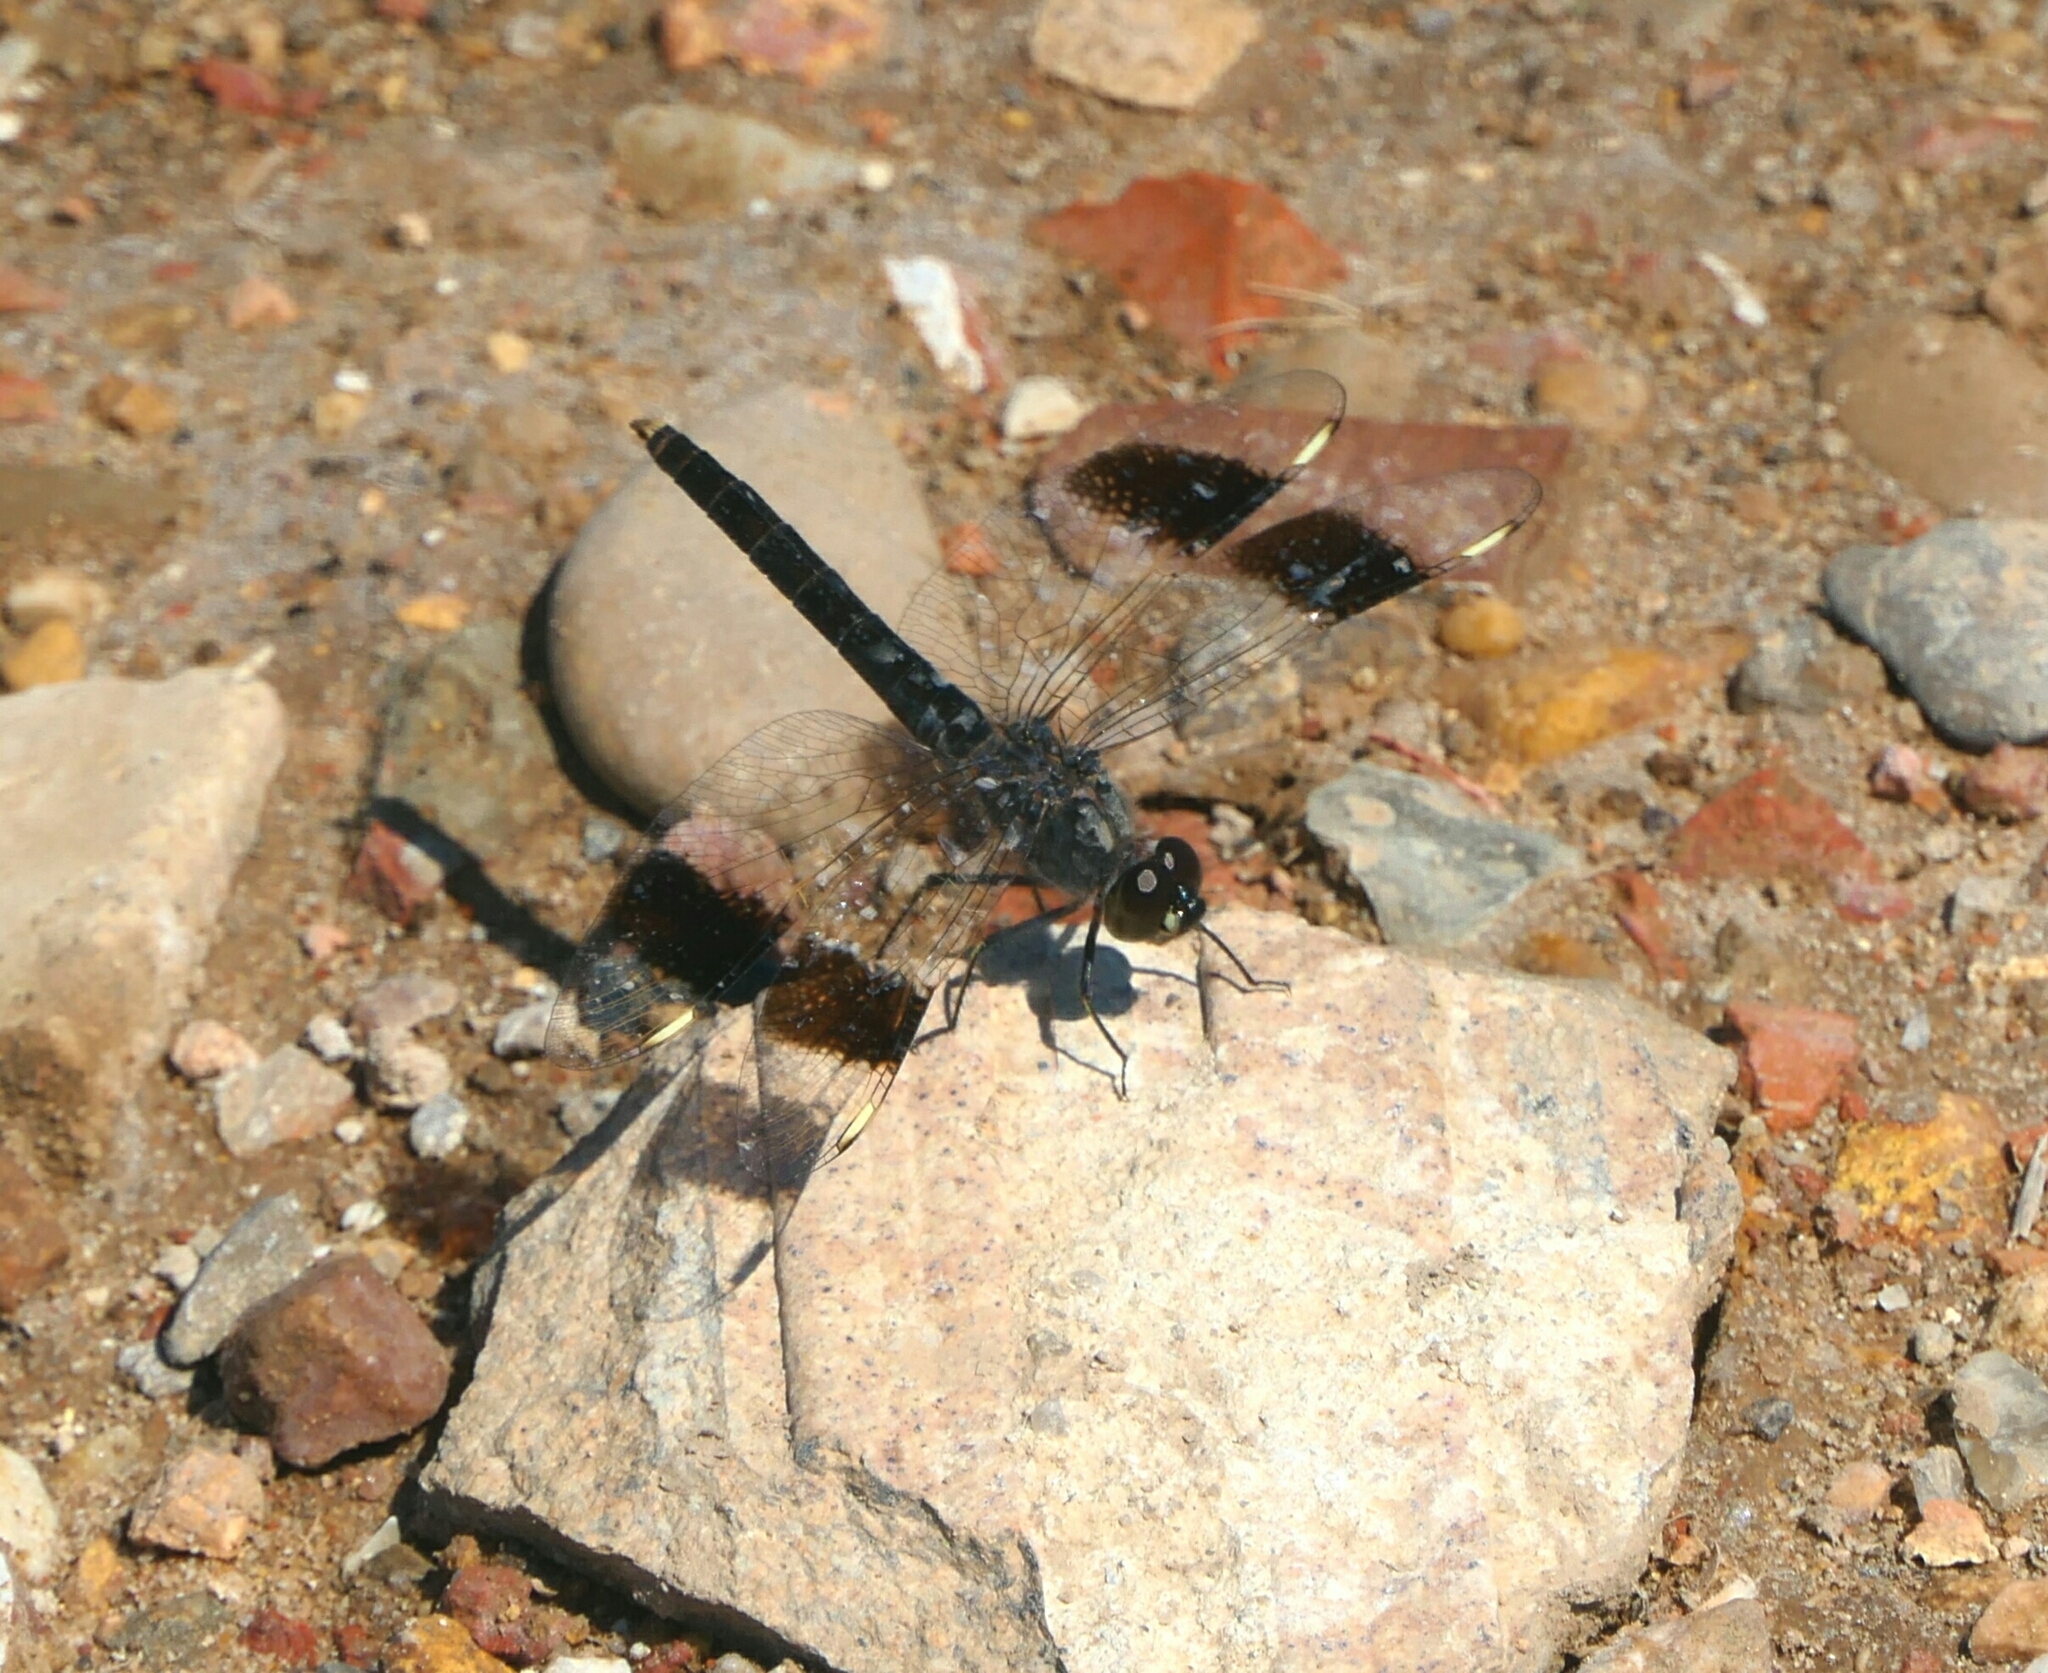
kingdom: Animalia
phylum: Arthropoda
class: Insecta
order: Odonata
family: Libellulidae
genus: Brachythemis
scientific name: Brachythemis impartita
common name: Banded groundling
